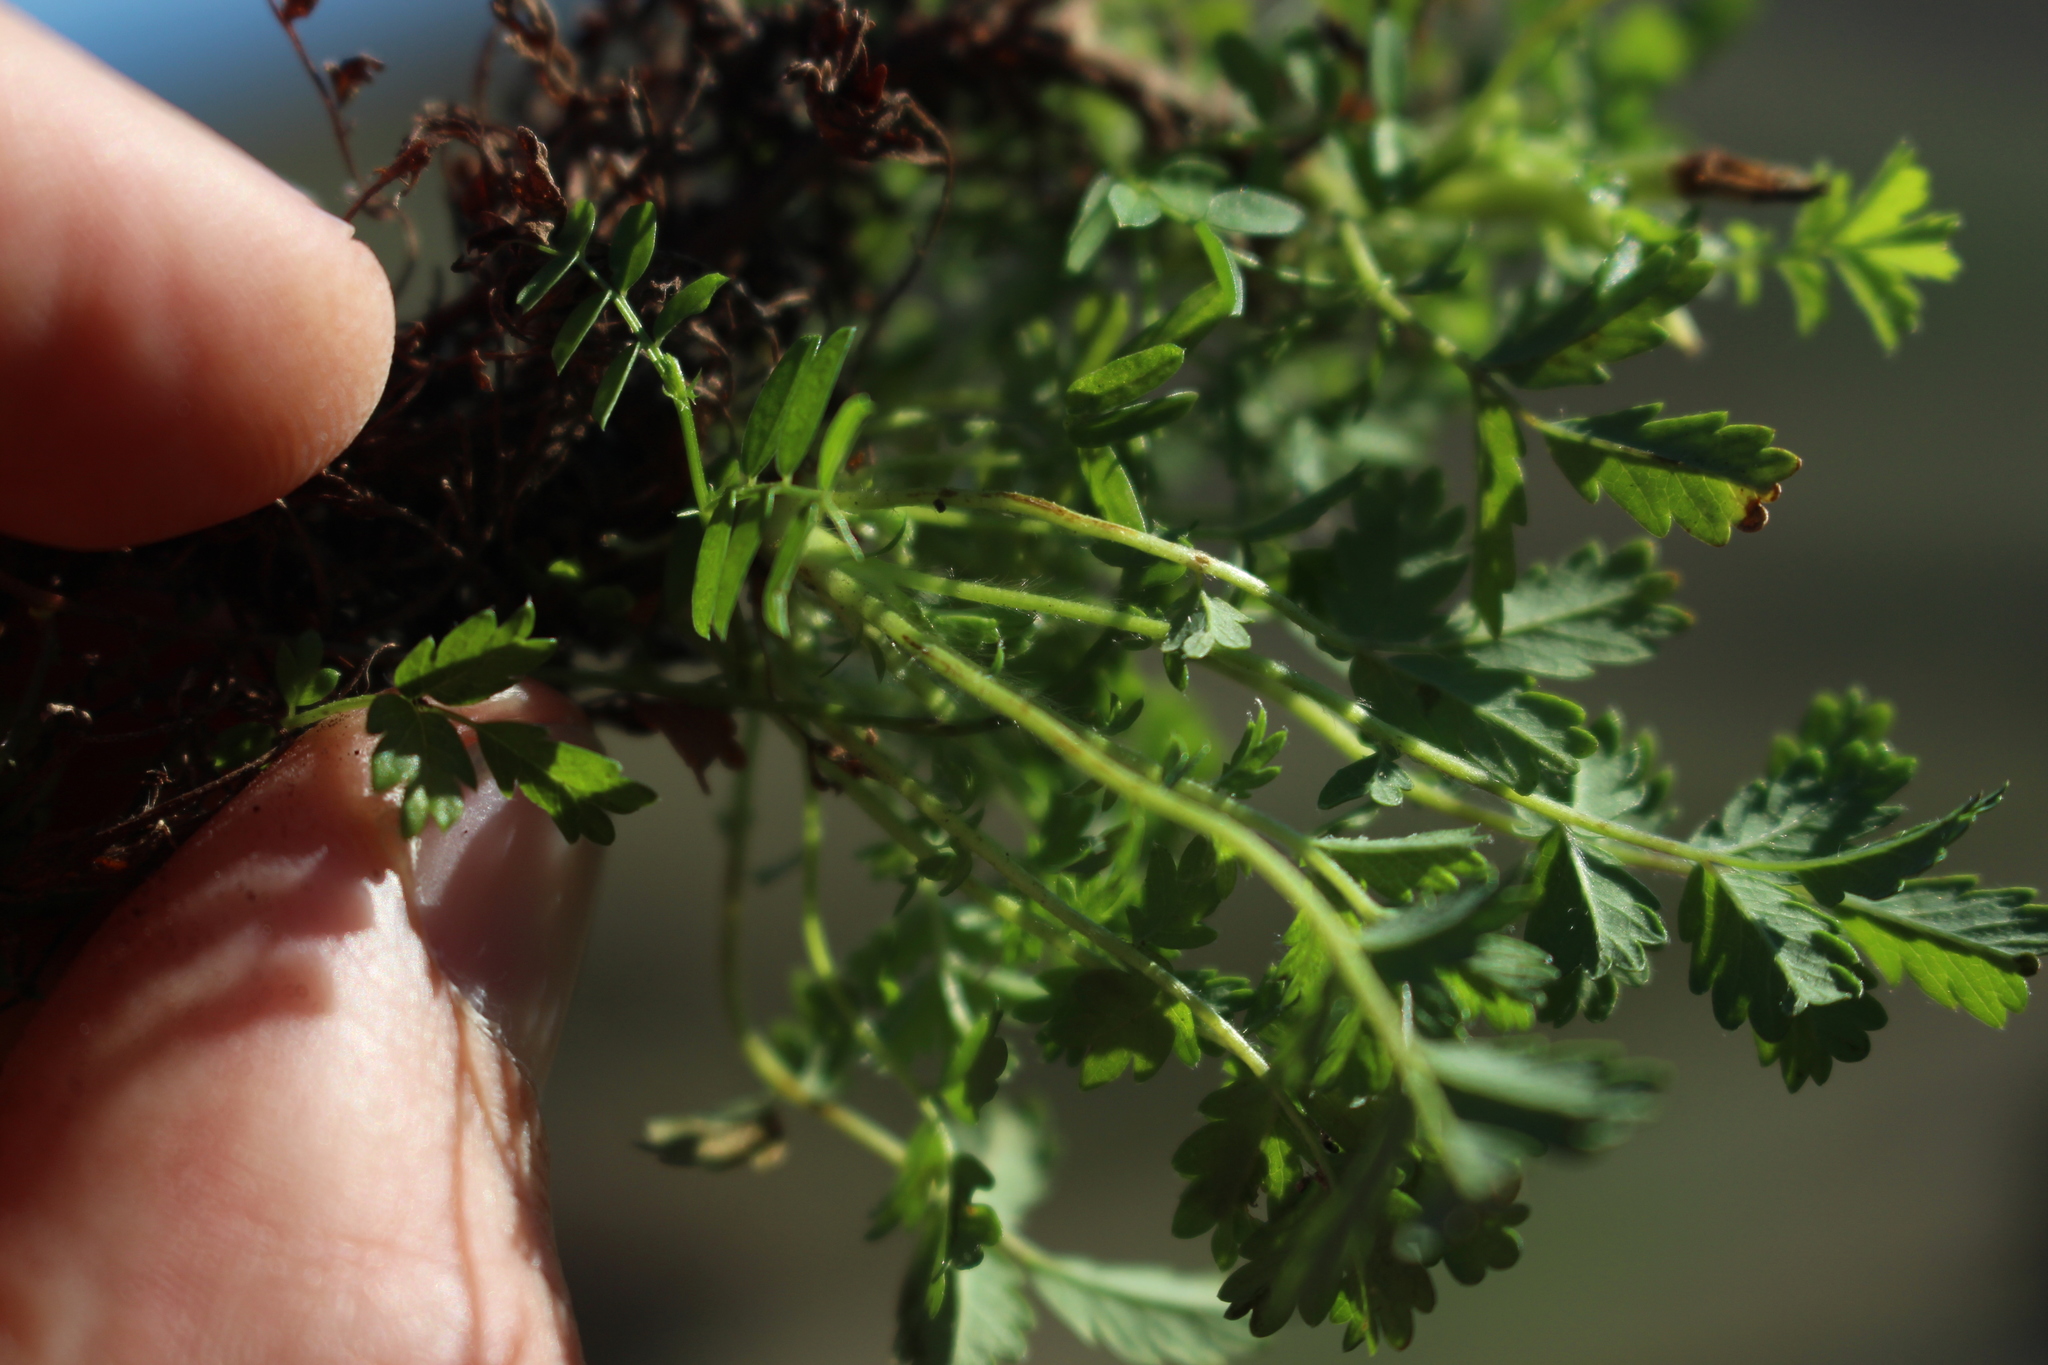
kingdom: Plantae
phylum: Tracheophyta
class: Magnoliopsida
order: Rosales
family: Rosaceae
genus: Acaena
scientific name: Acaena novae-zelandiae
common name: Pirri-pirri-bur
